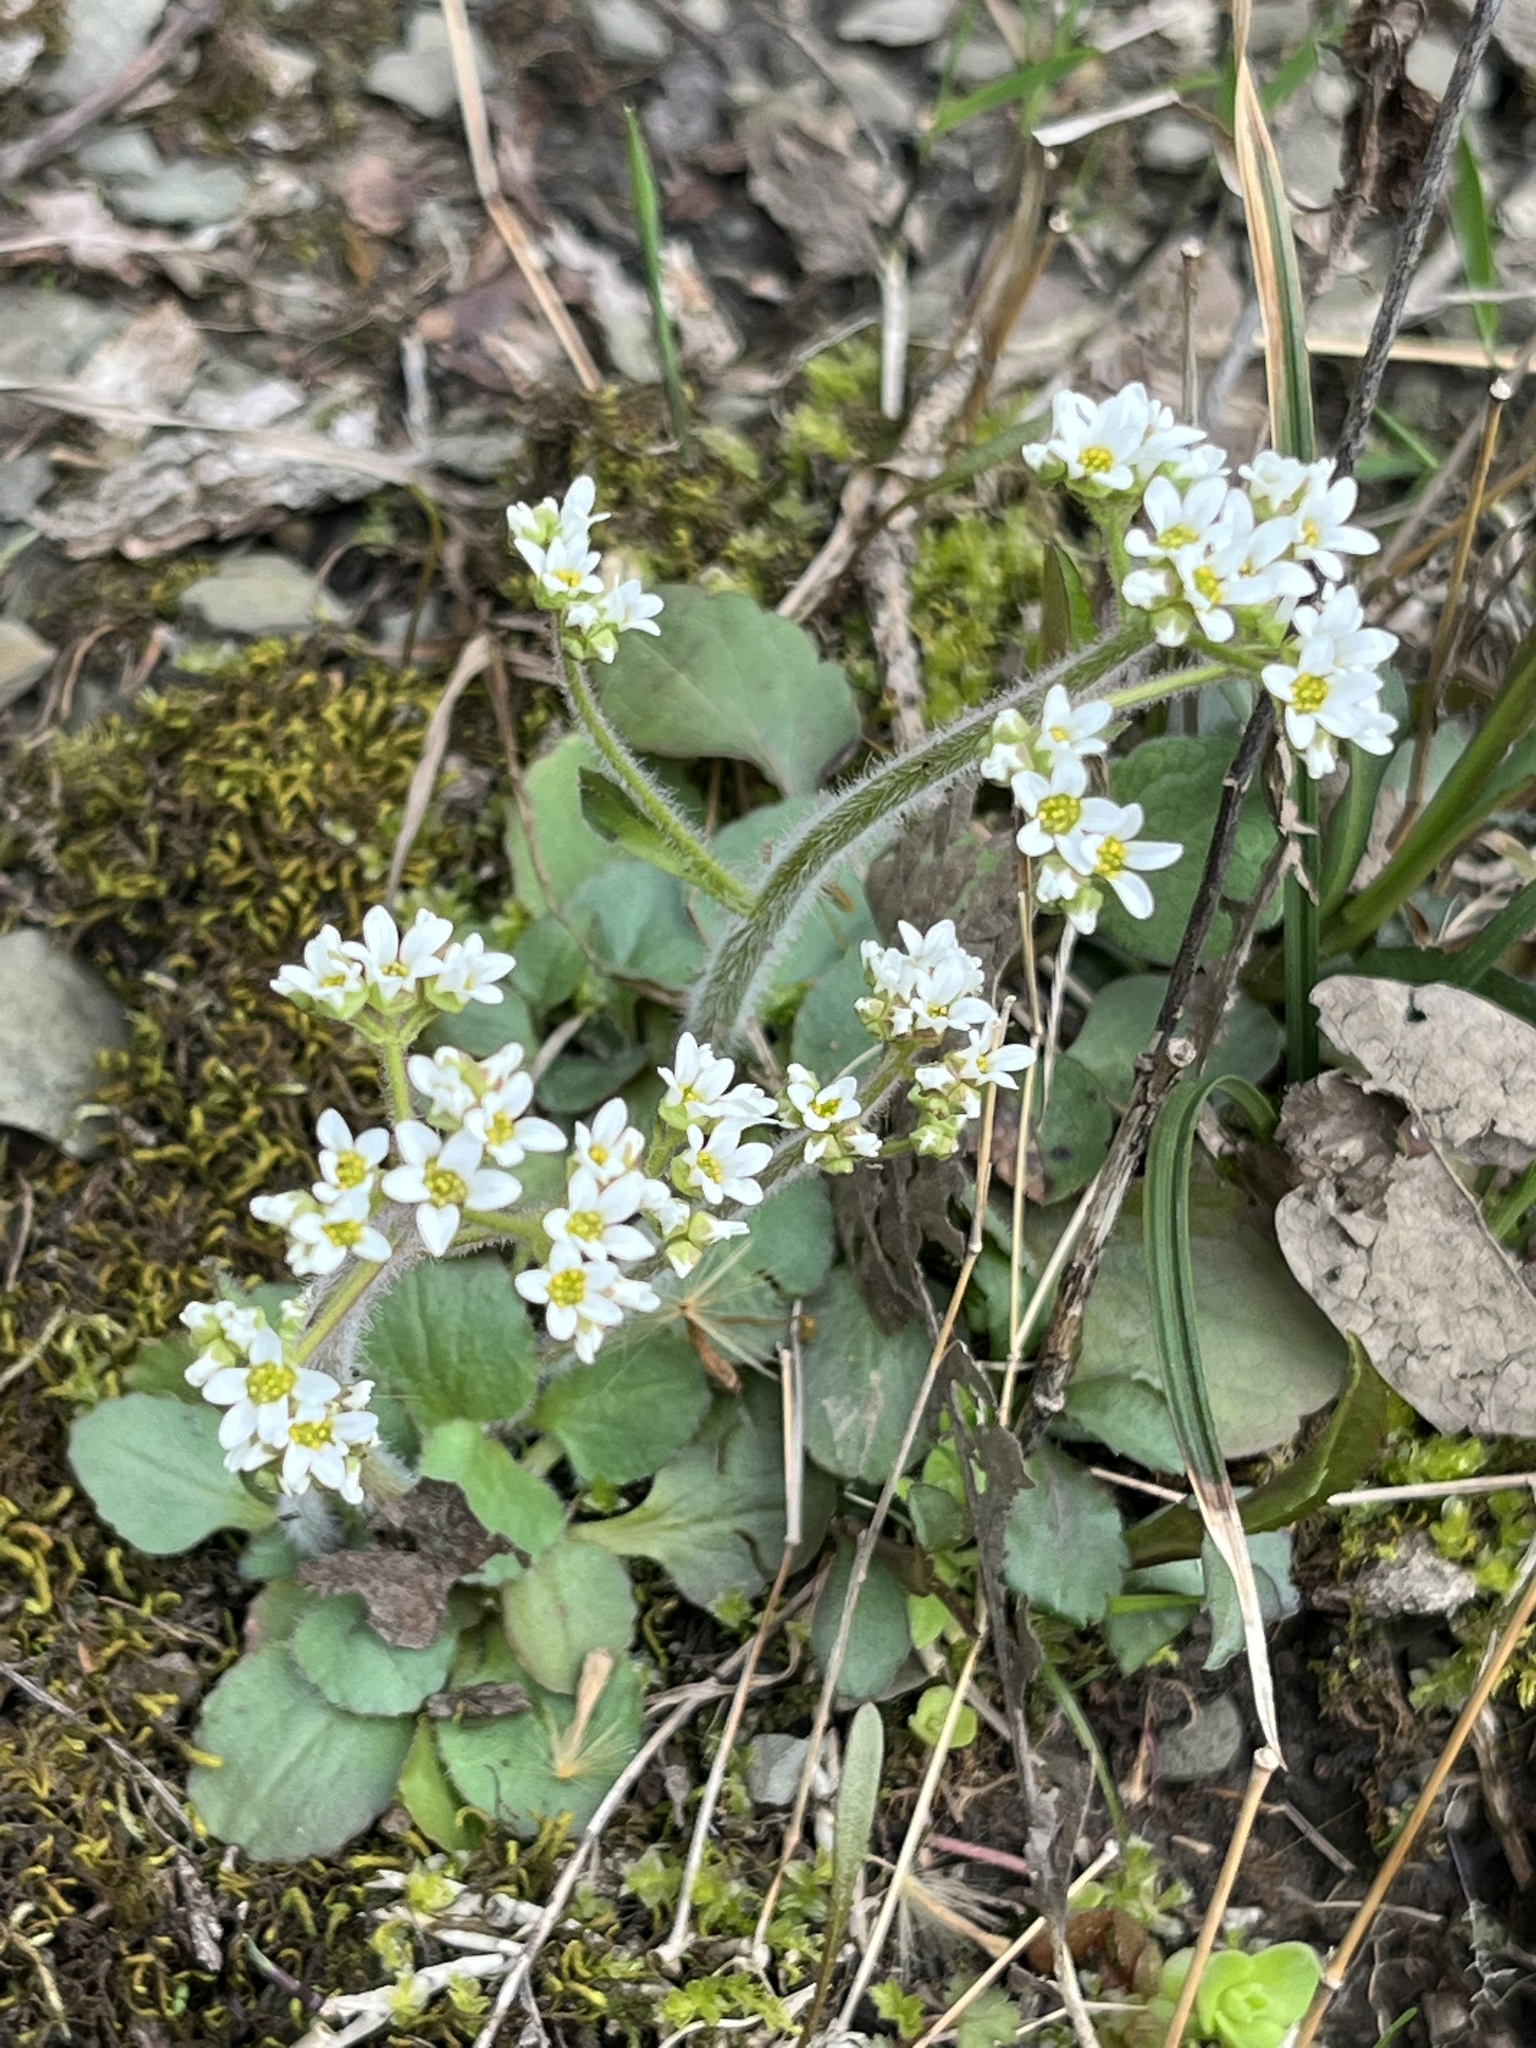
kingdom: Plantae
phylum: Tracheophyta
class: Magnoliopsida
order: Saxifragales
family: Saxifragaceae
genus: Micranthes
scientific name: Micranthes virginiensis
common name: Early saxifrage
